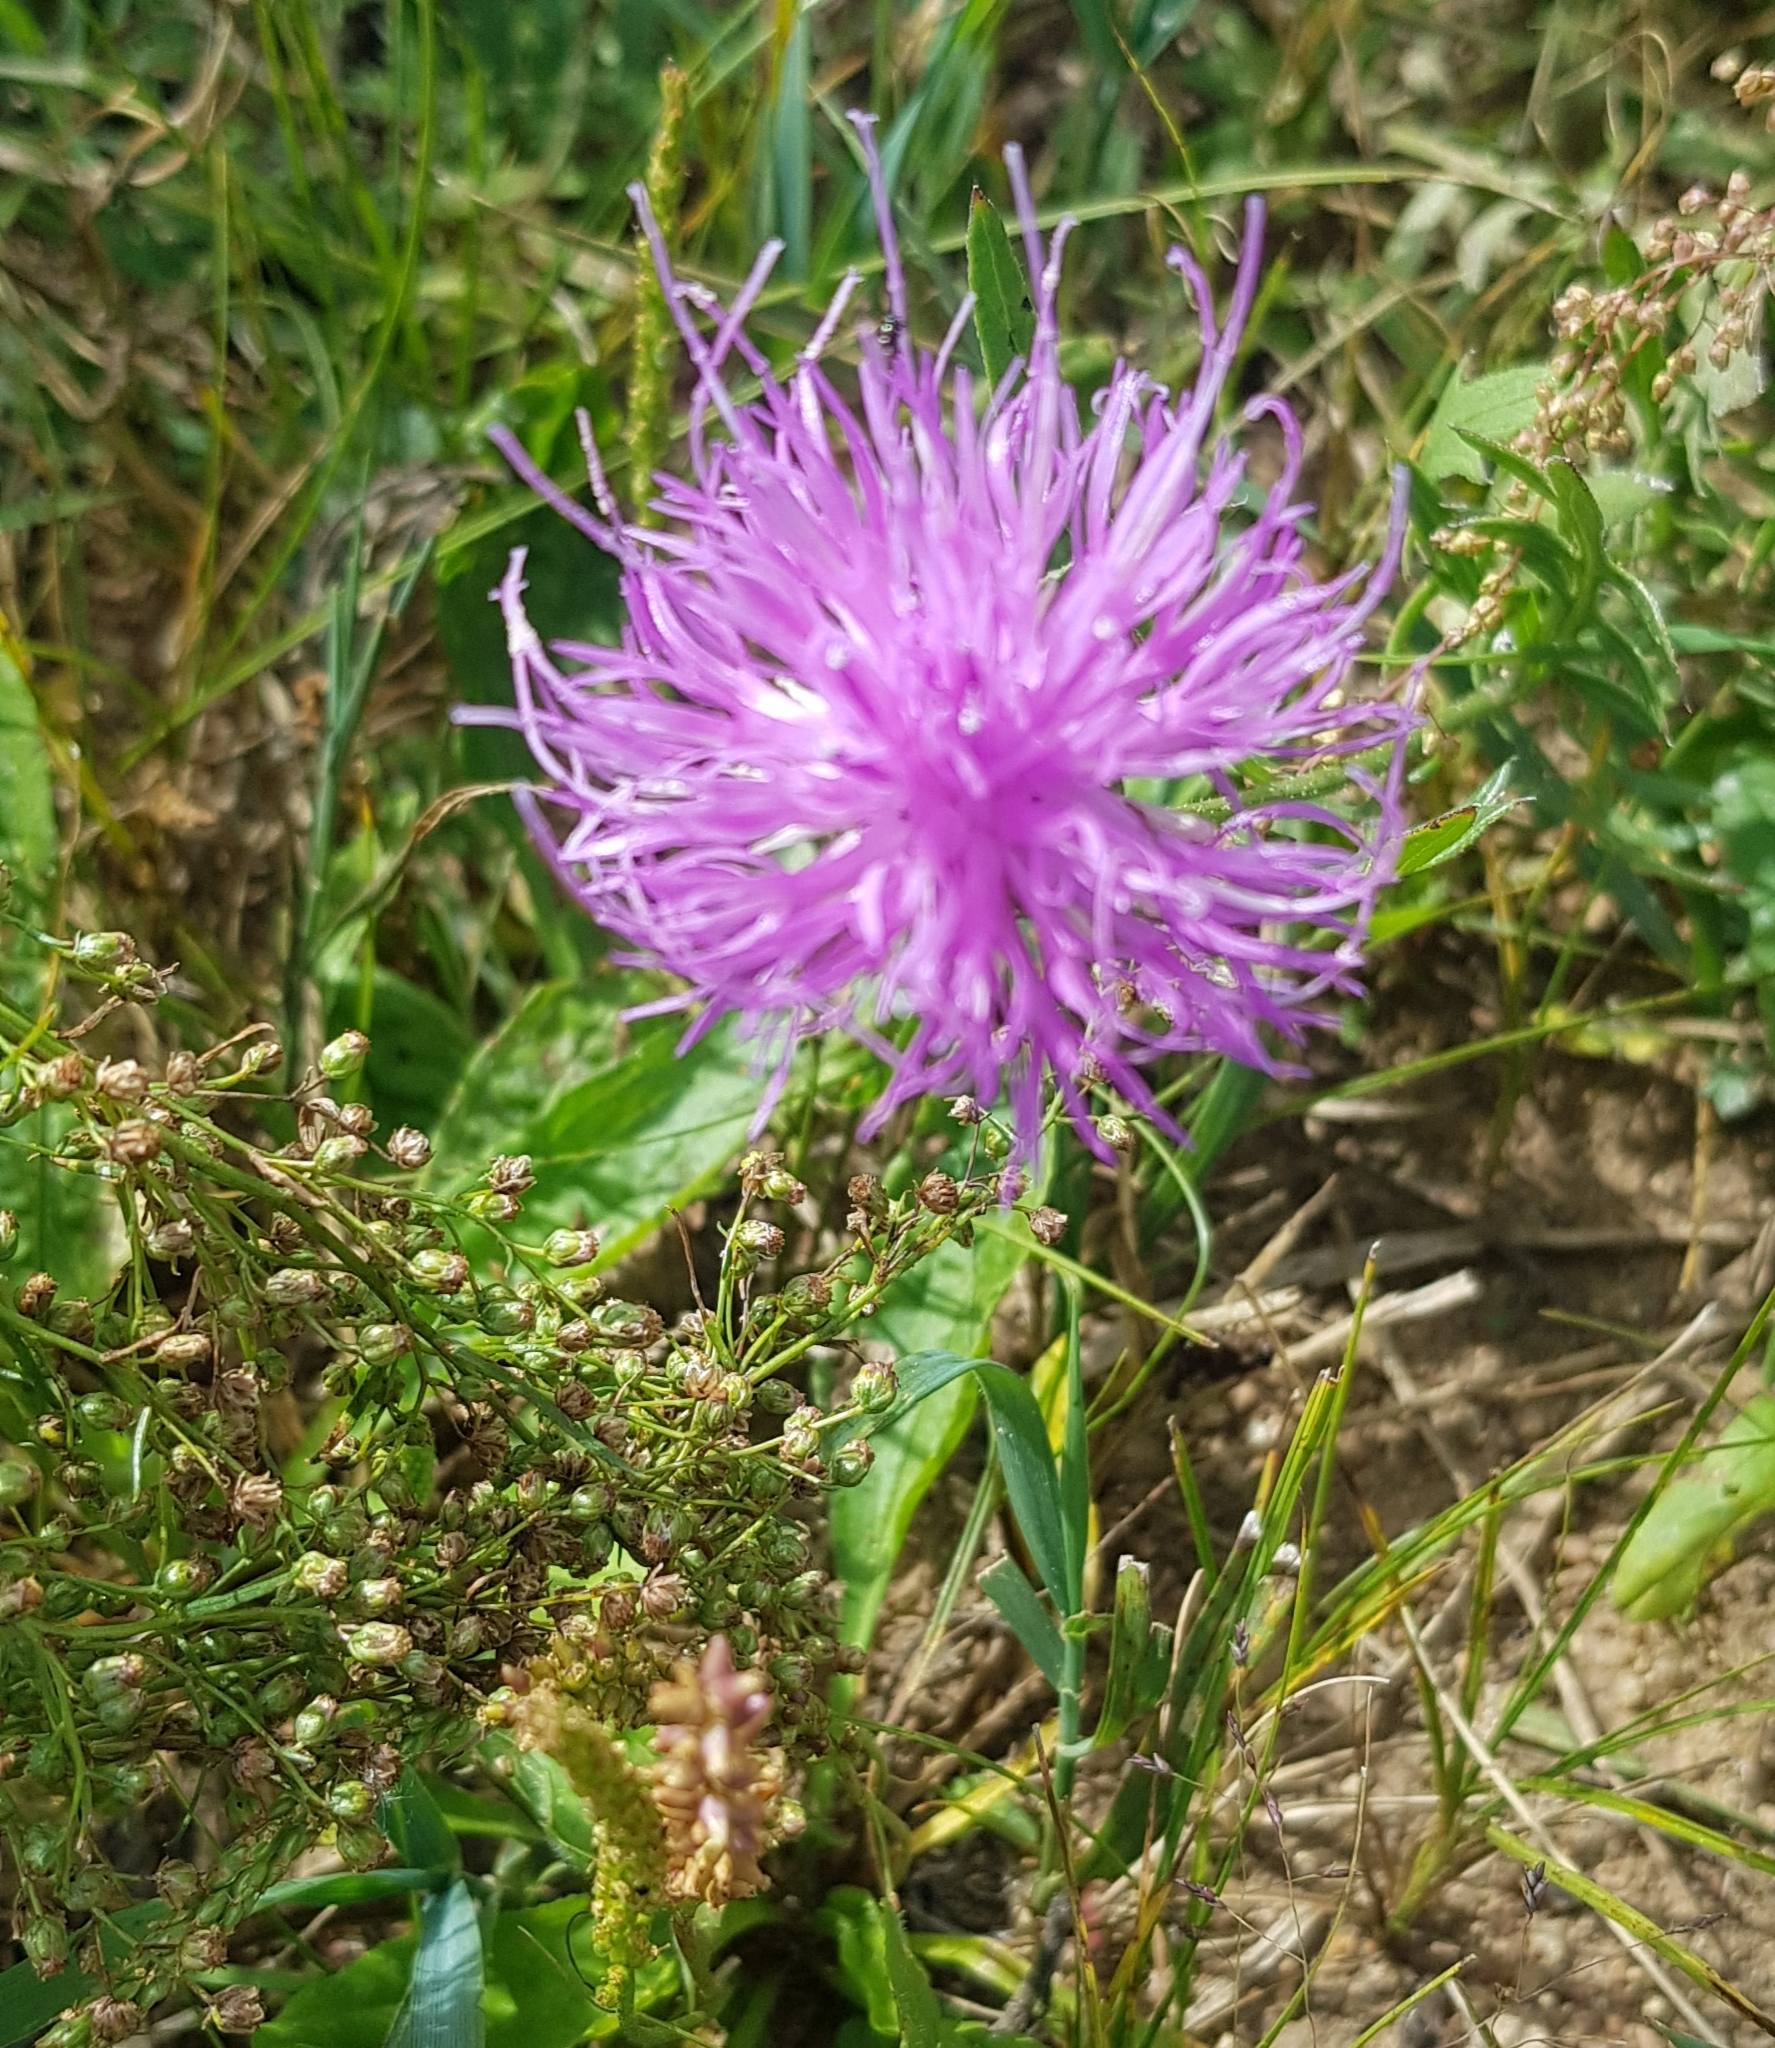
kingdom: Plantae
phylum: Tracheophyta
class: Magnoliopsida
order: Asterales
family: Asteraceae
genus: Klasea
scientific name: Klasea centauroides
